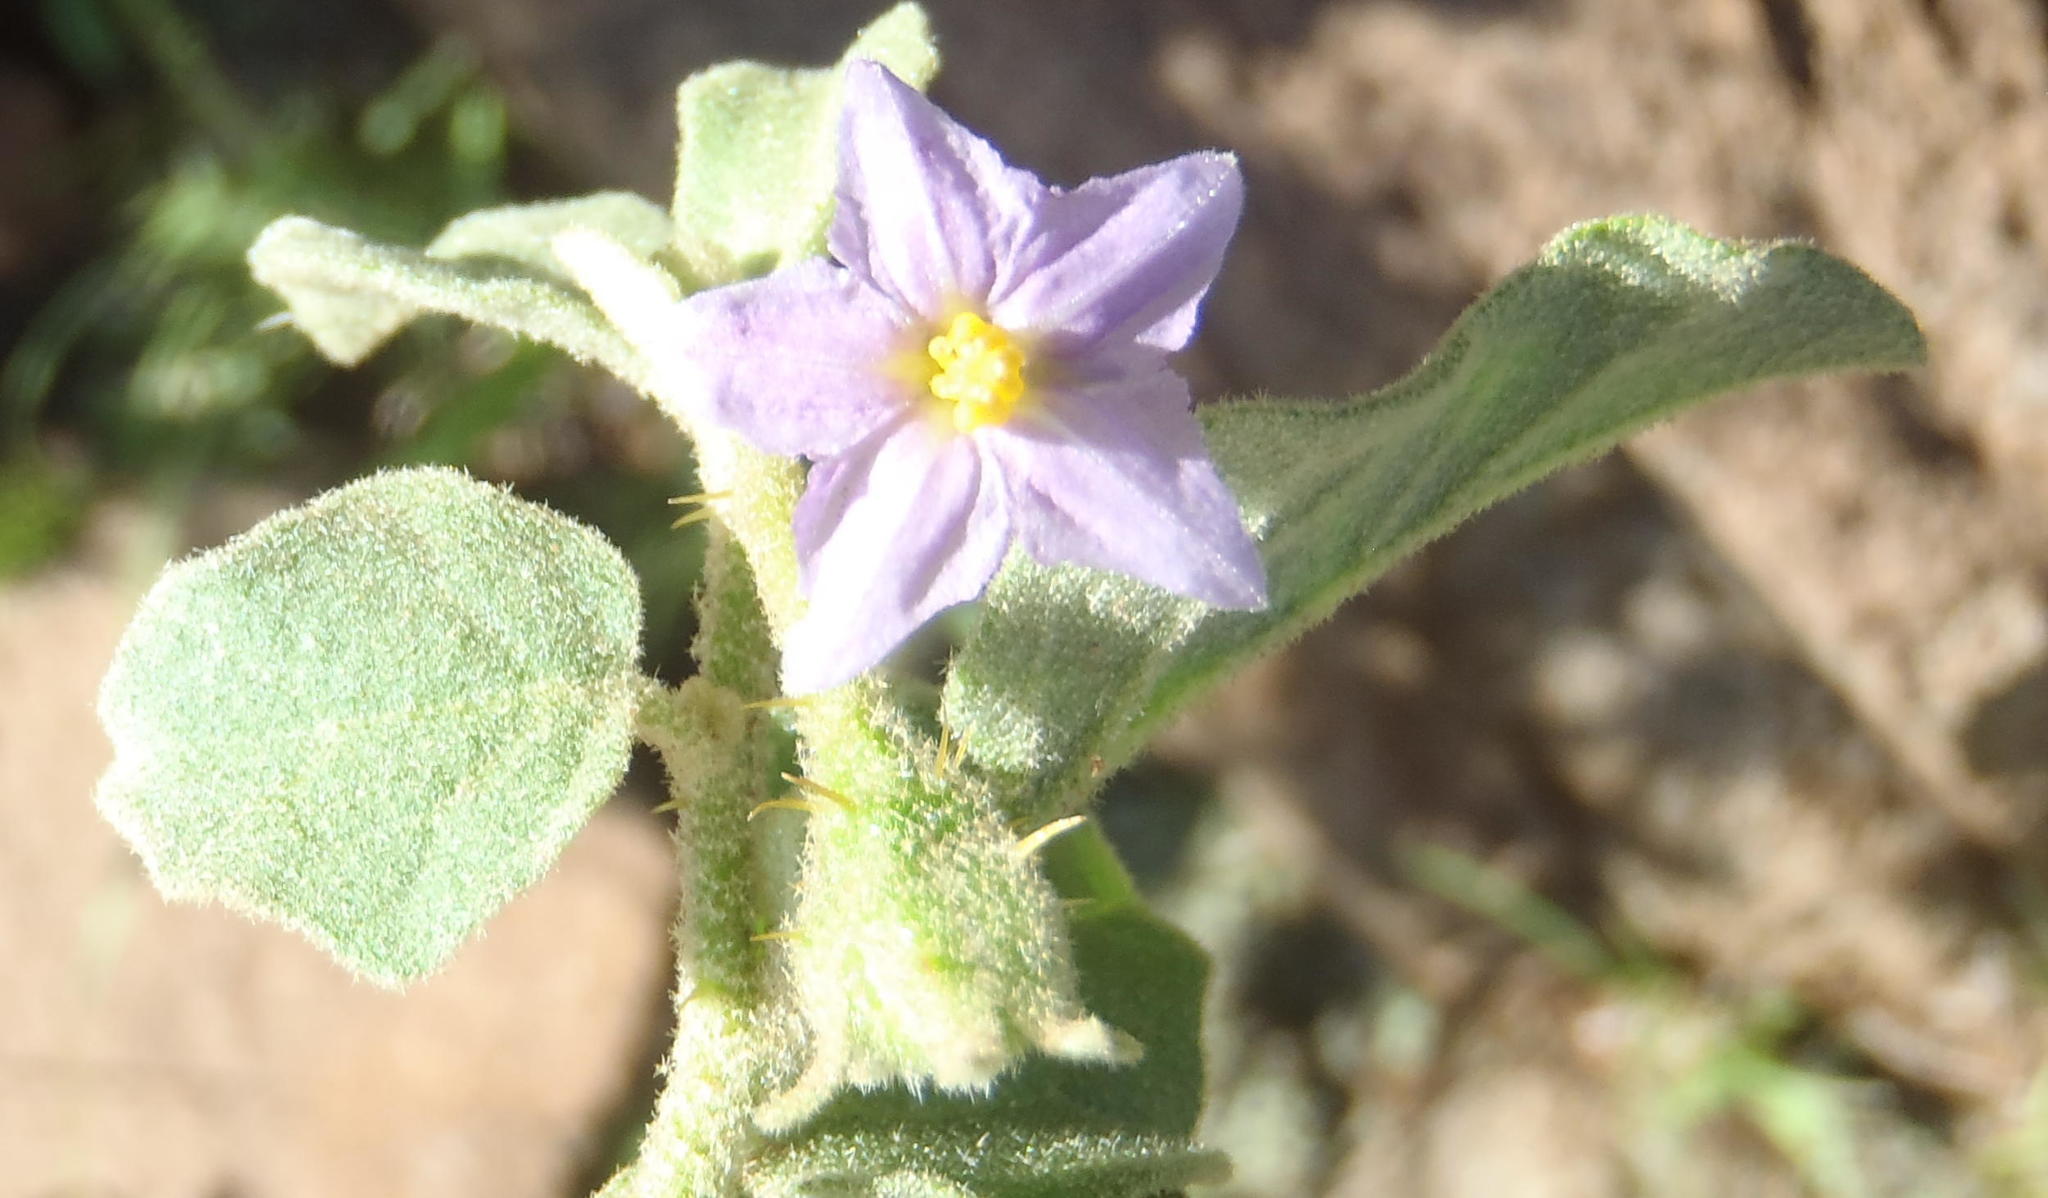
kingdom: Plantae
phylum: Tracheophyta
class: Magnoliopsida
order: Solanales
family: Solanaceae
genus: Solanum
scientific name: Solanum tomentosum
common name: Wild aubergine
